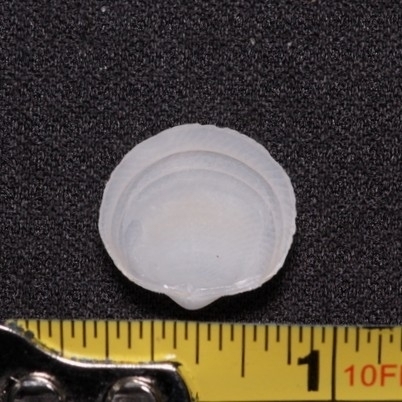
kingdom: Animalia
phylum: Mollusca
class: Bivalvia
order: Lucinida
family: Lucinidae
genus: Divalinga
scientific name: Divalinga quadrisulcata
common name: Cross-hatched lucine
